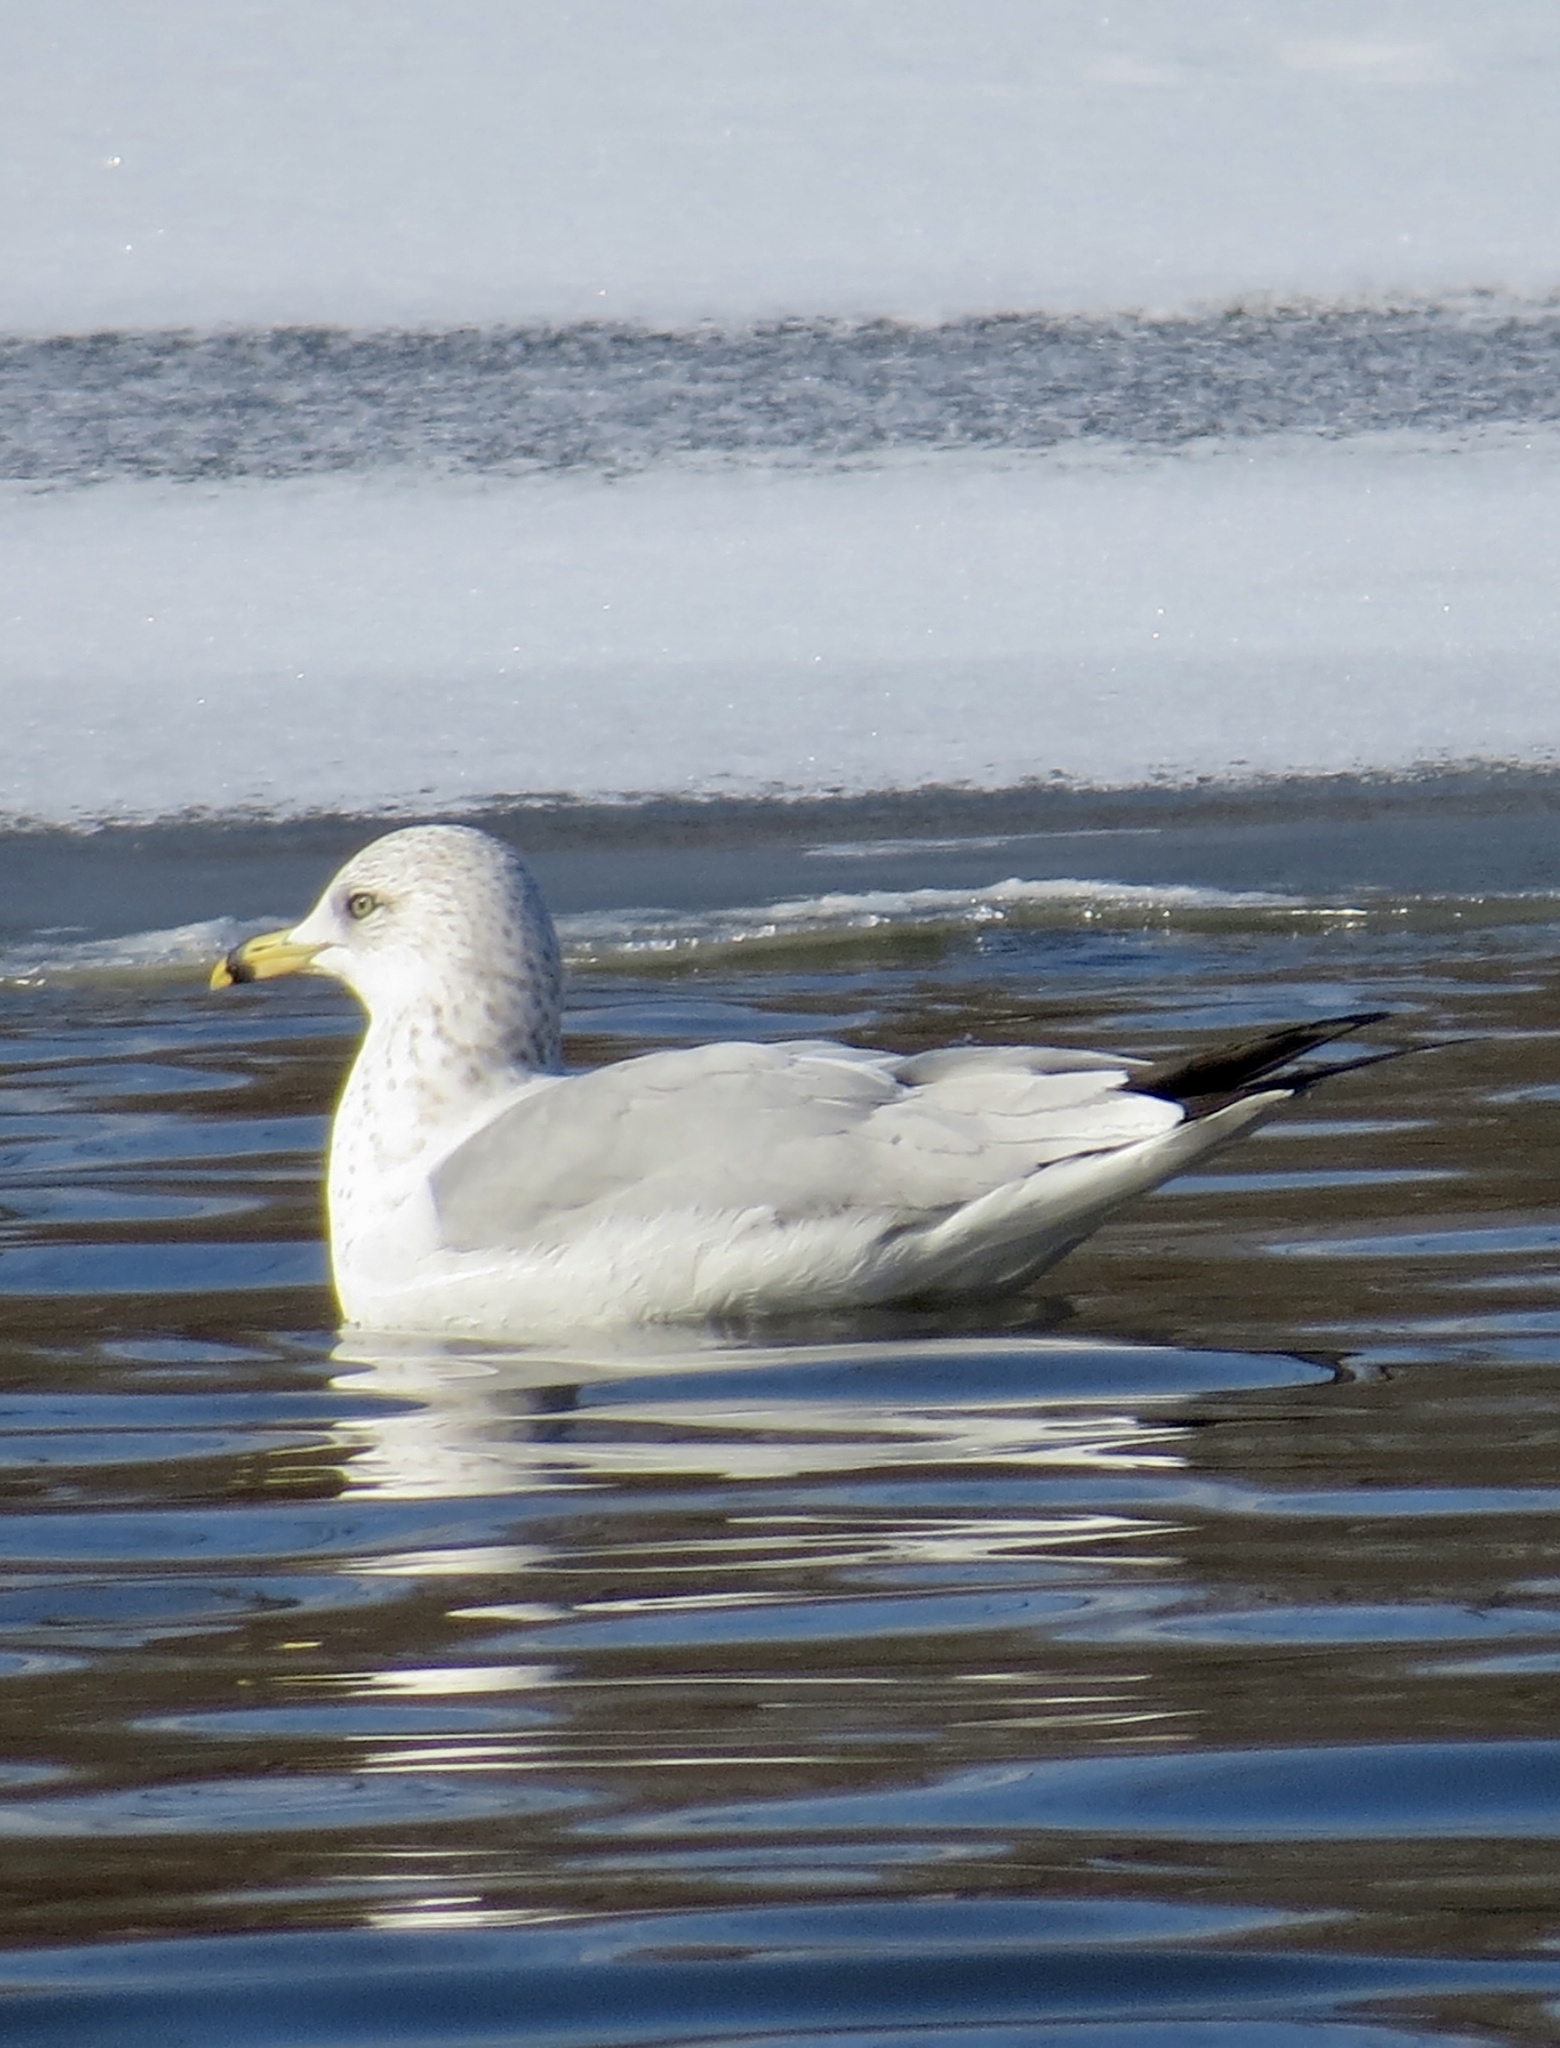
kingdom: Animalia
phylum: Chordata
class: Aves
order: Charadriiformes
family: Laridae
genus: Larus
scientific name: Larus delawarensis
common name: Ring-billed gull
